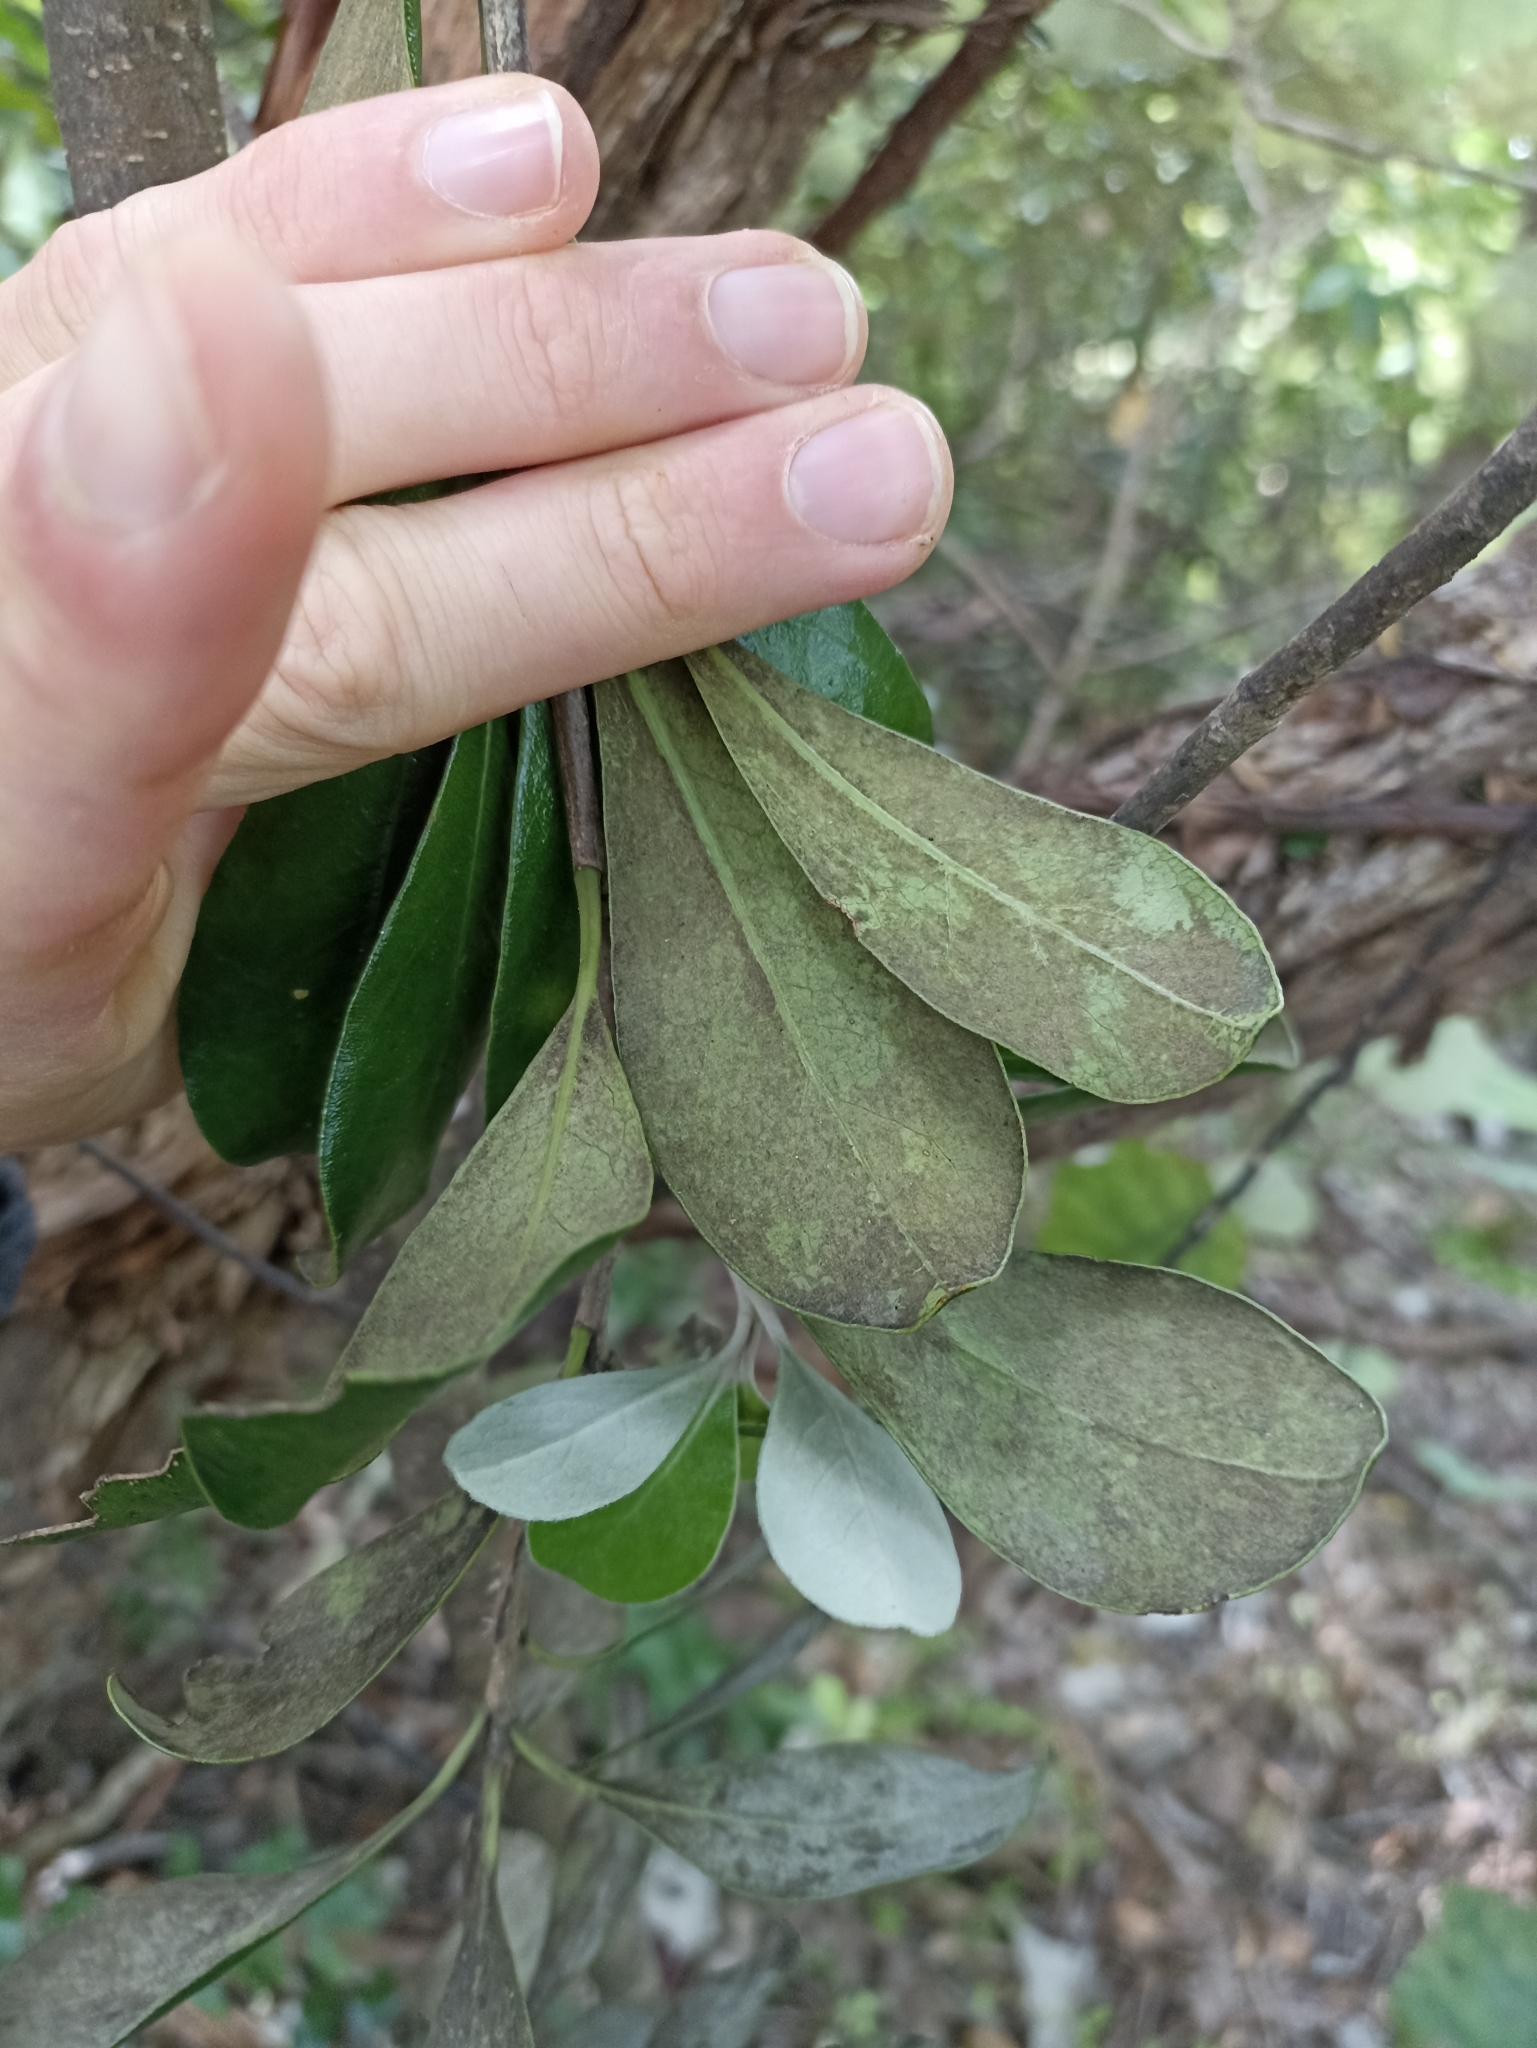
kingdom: Plantae
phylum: Tracheophyta
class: Magnoliopsida
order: Apiales
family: Pittosporaceae
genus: Pittosporum
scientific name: Pittosporum crassifolium
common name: Karo
